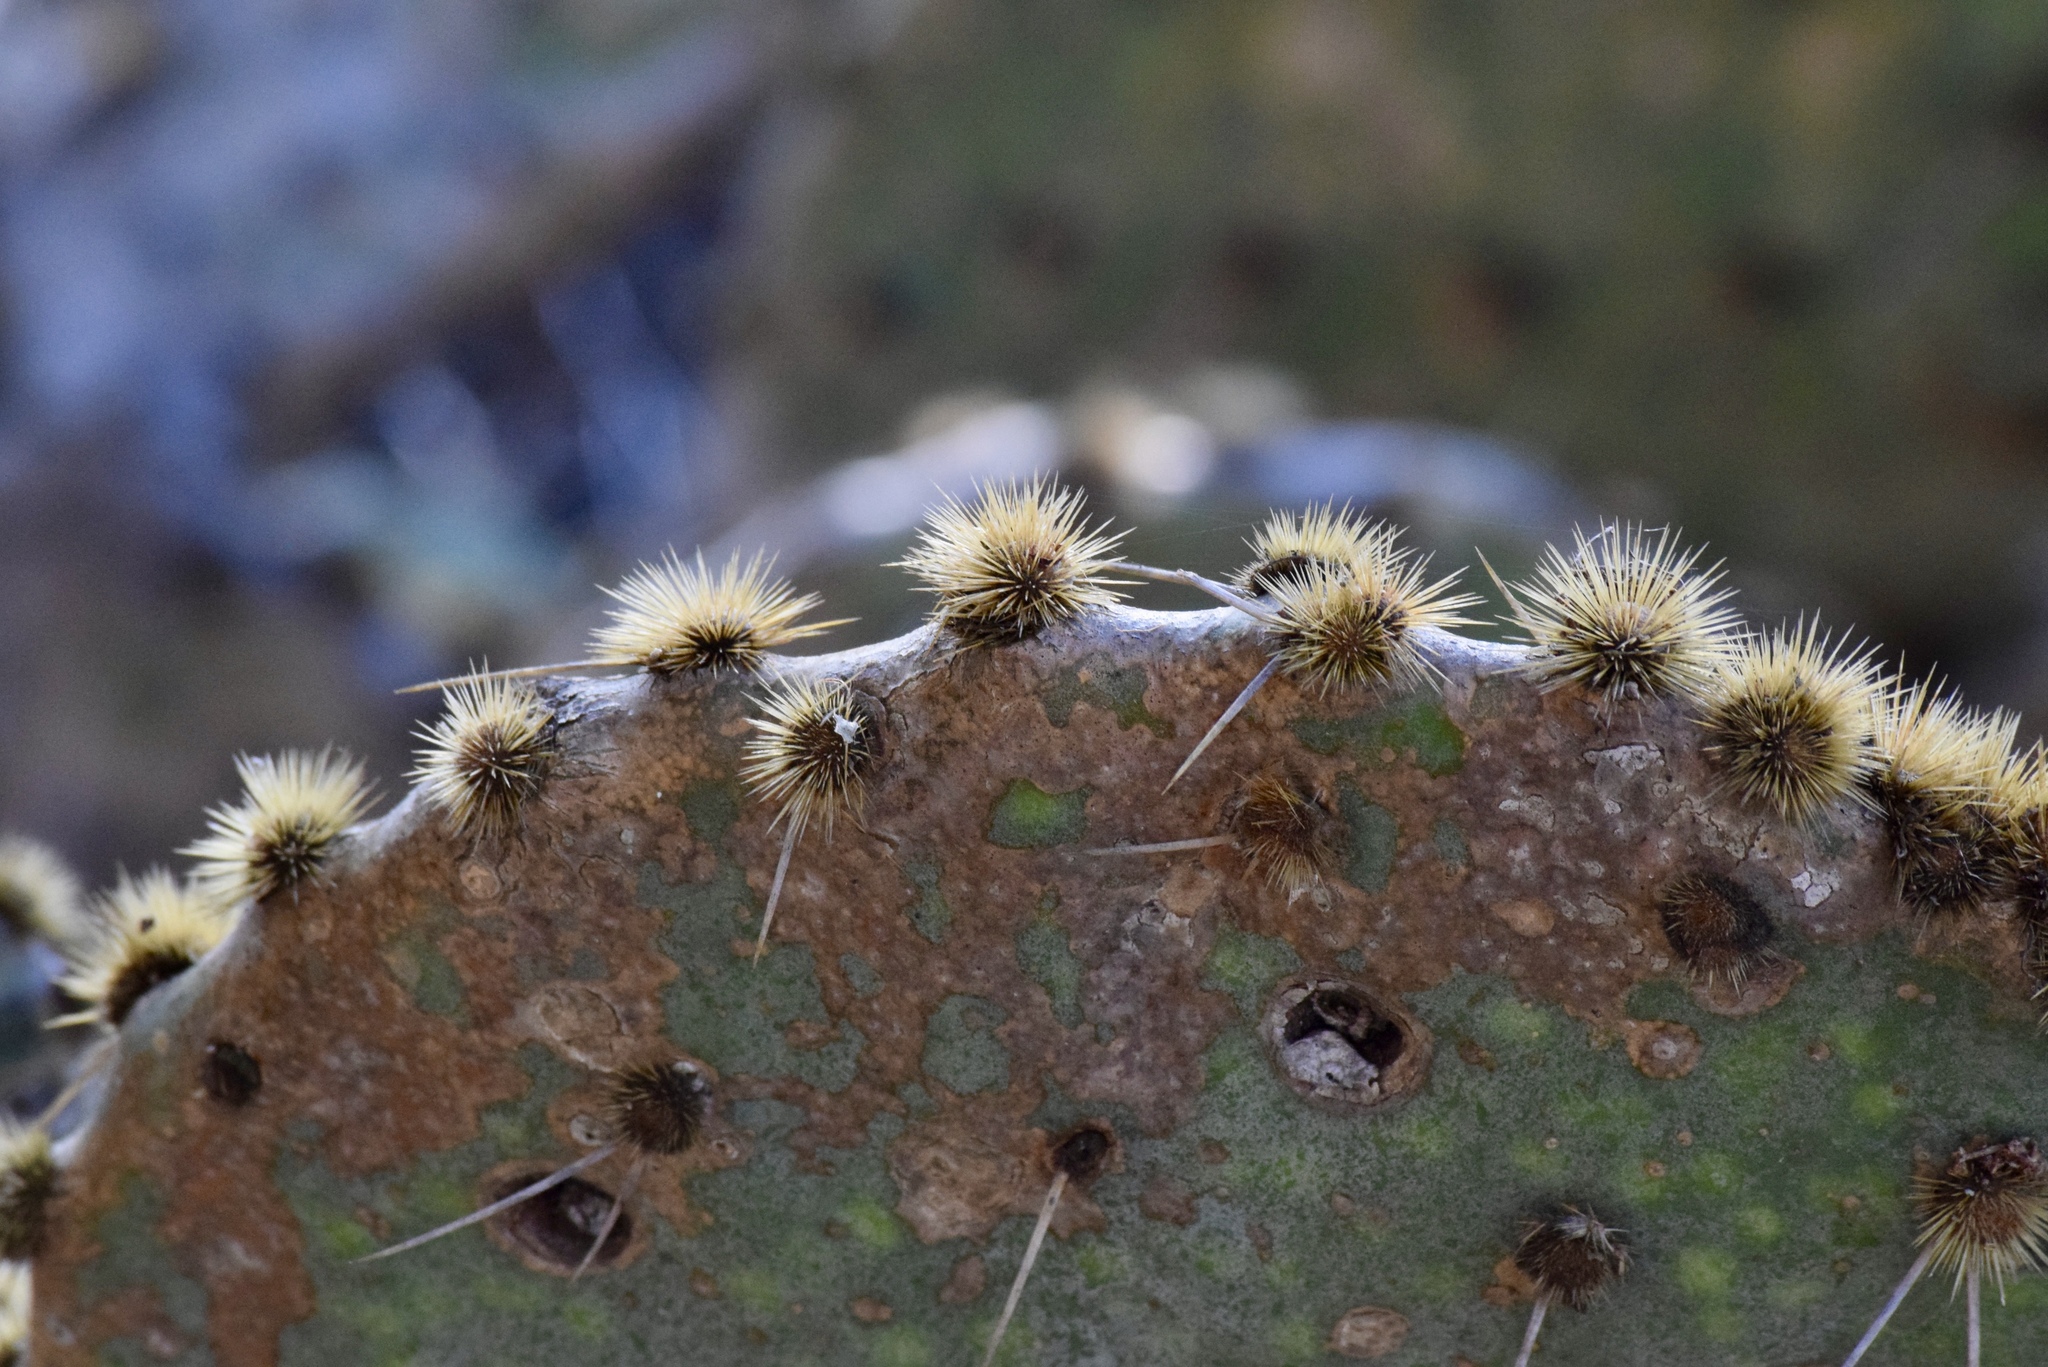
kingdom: Plantae
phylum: Tracheophyta
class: Magnoliopsida
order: Caryophyllales
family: Cactaceae
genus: Opuntia
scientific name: Opuntia engelmannii
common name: Cactus-apple
